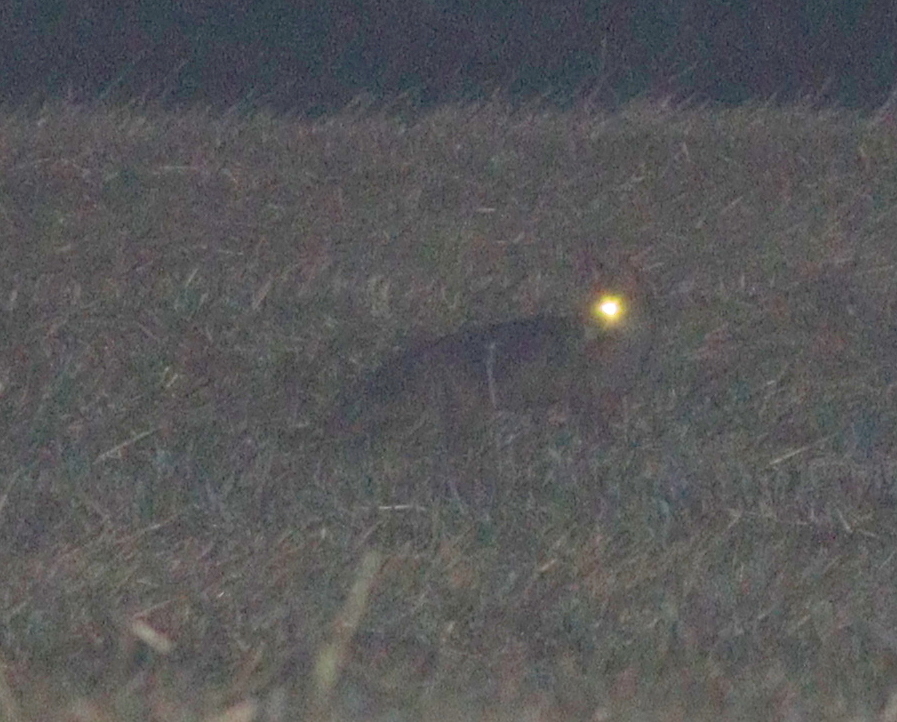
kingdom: Animalia
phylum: Chordata
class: Mammalia
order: Carnivora
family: Canidae
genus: Vulpes
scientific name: Vulpes vulpes
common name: Red fox
